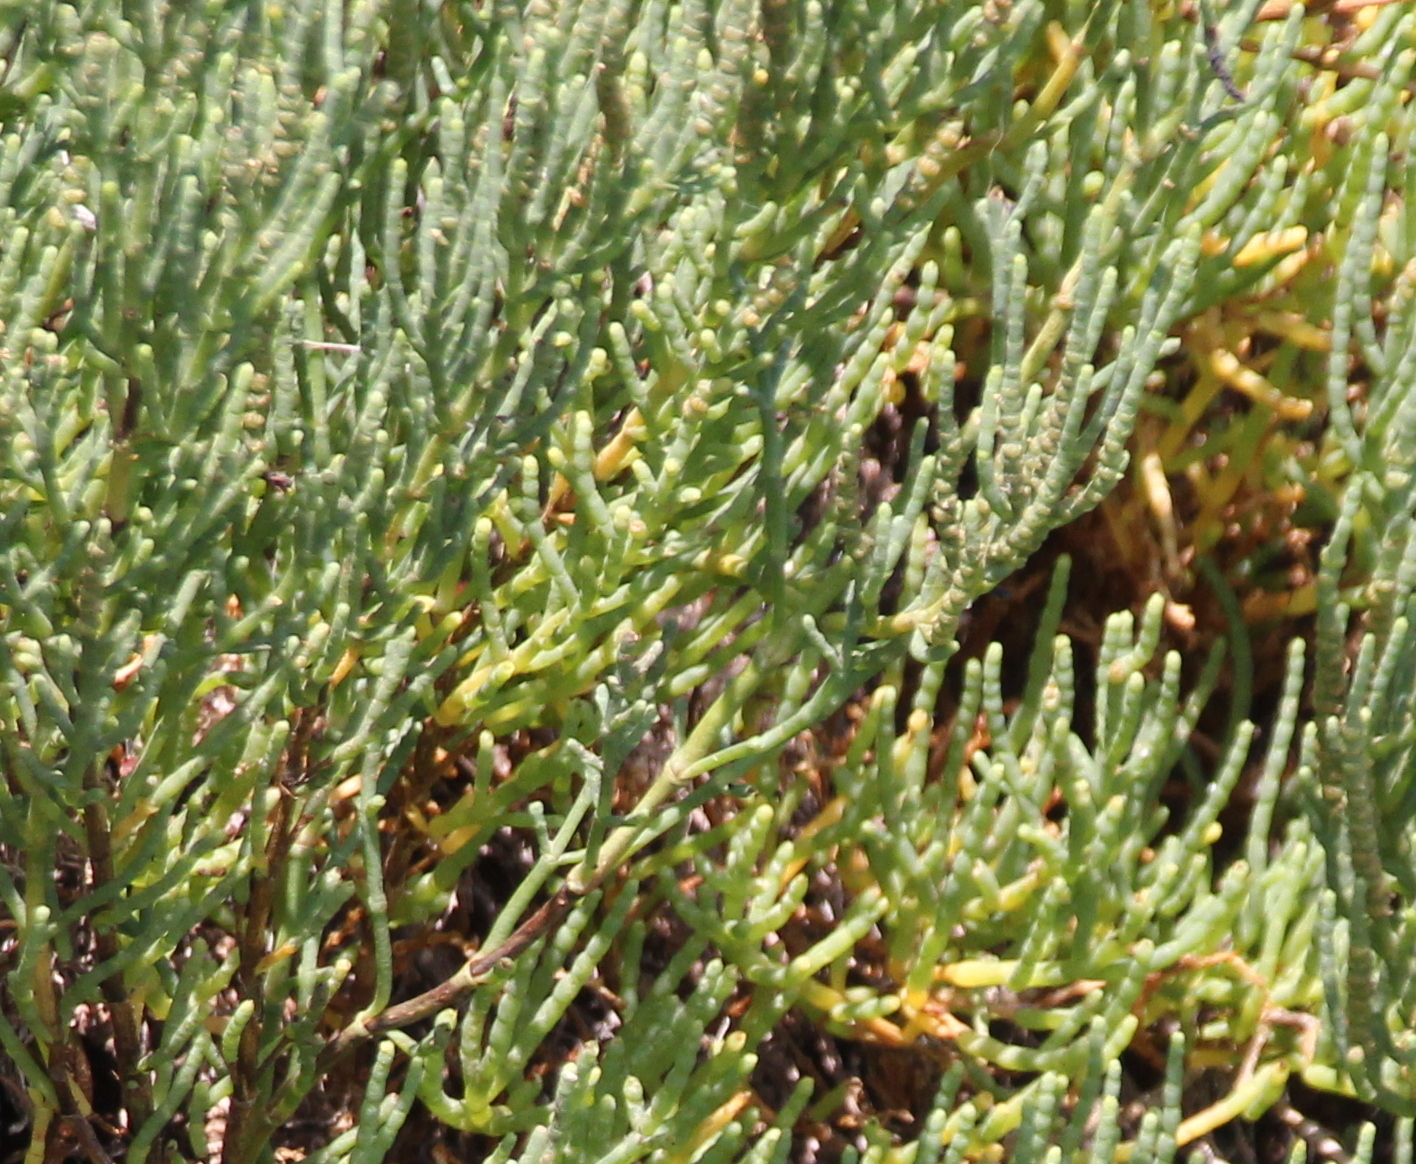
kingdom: Plantae
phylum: Tracheophyta
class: Magnoliopsida
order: Caryophyllales
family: Amaranthaceae
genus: Arthroceras
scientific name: Arthroceras subterminale
